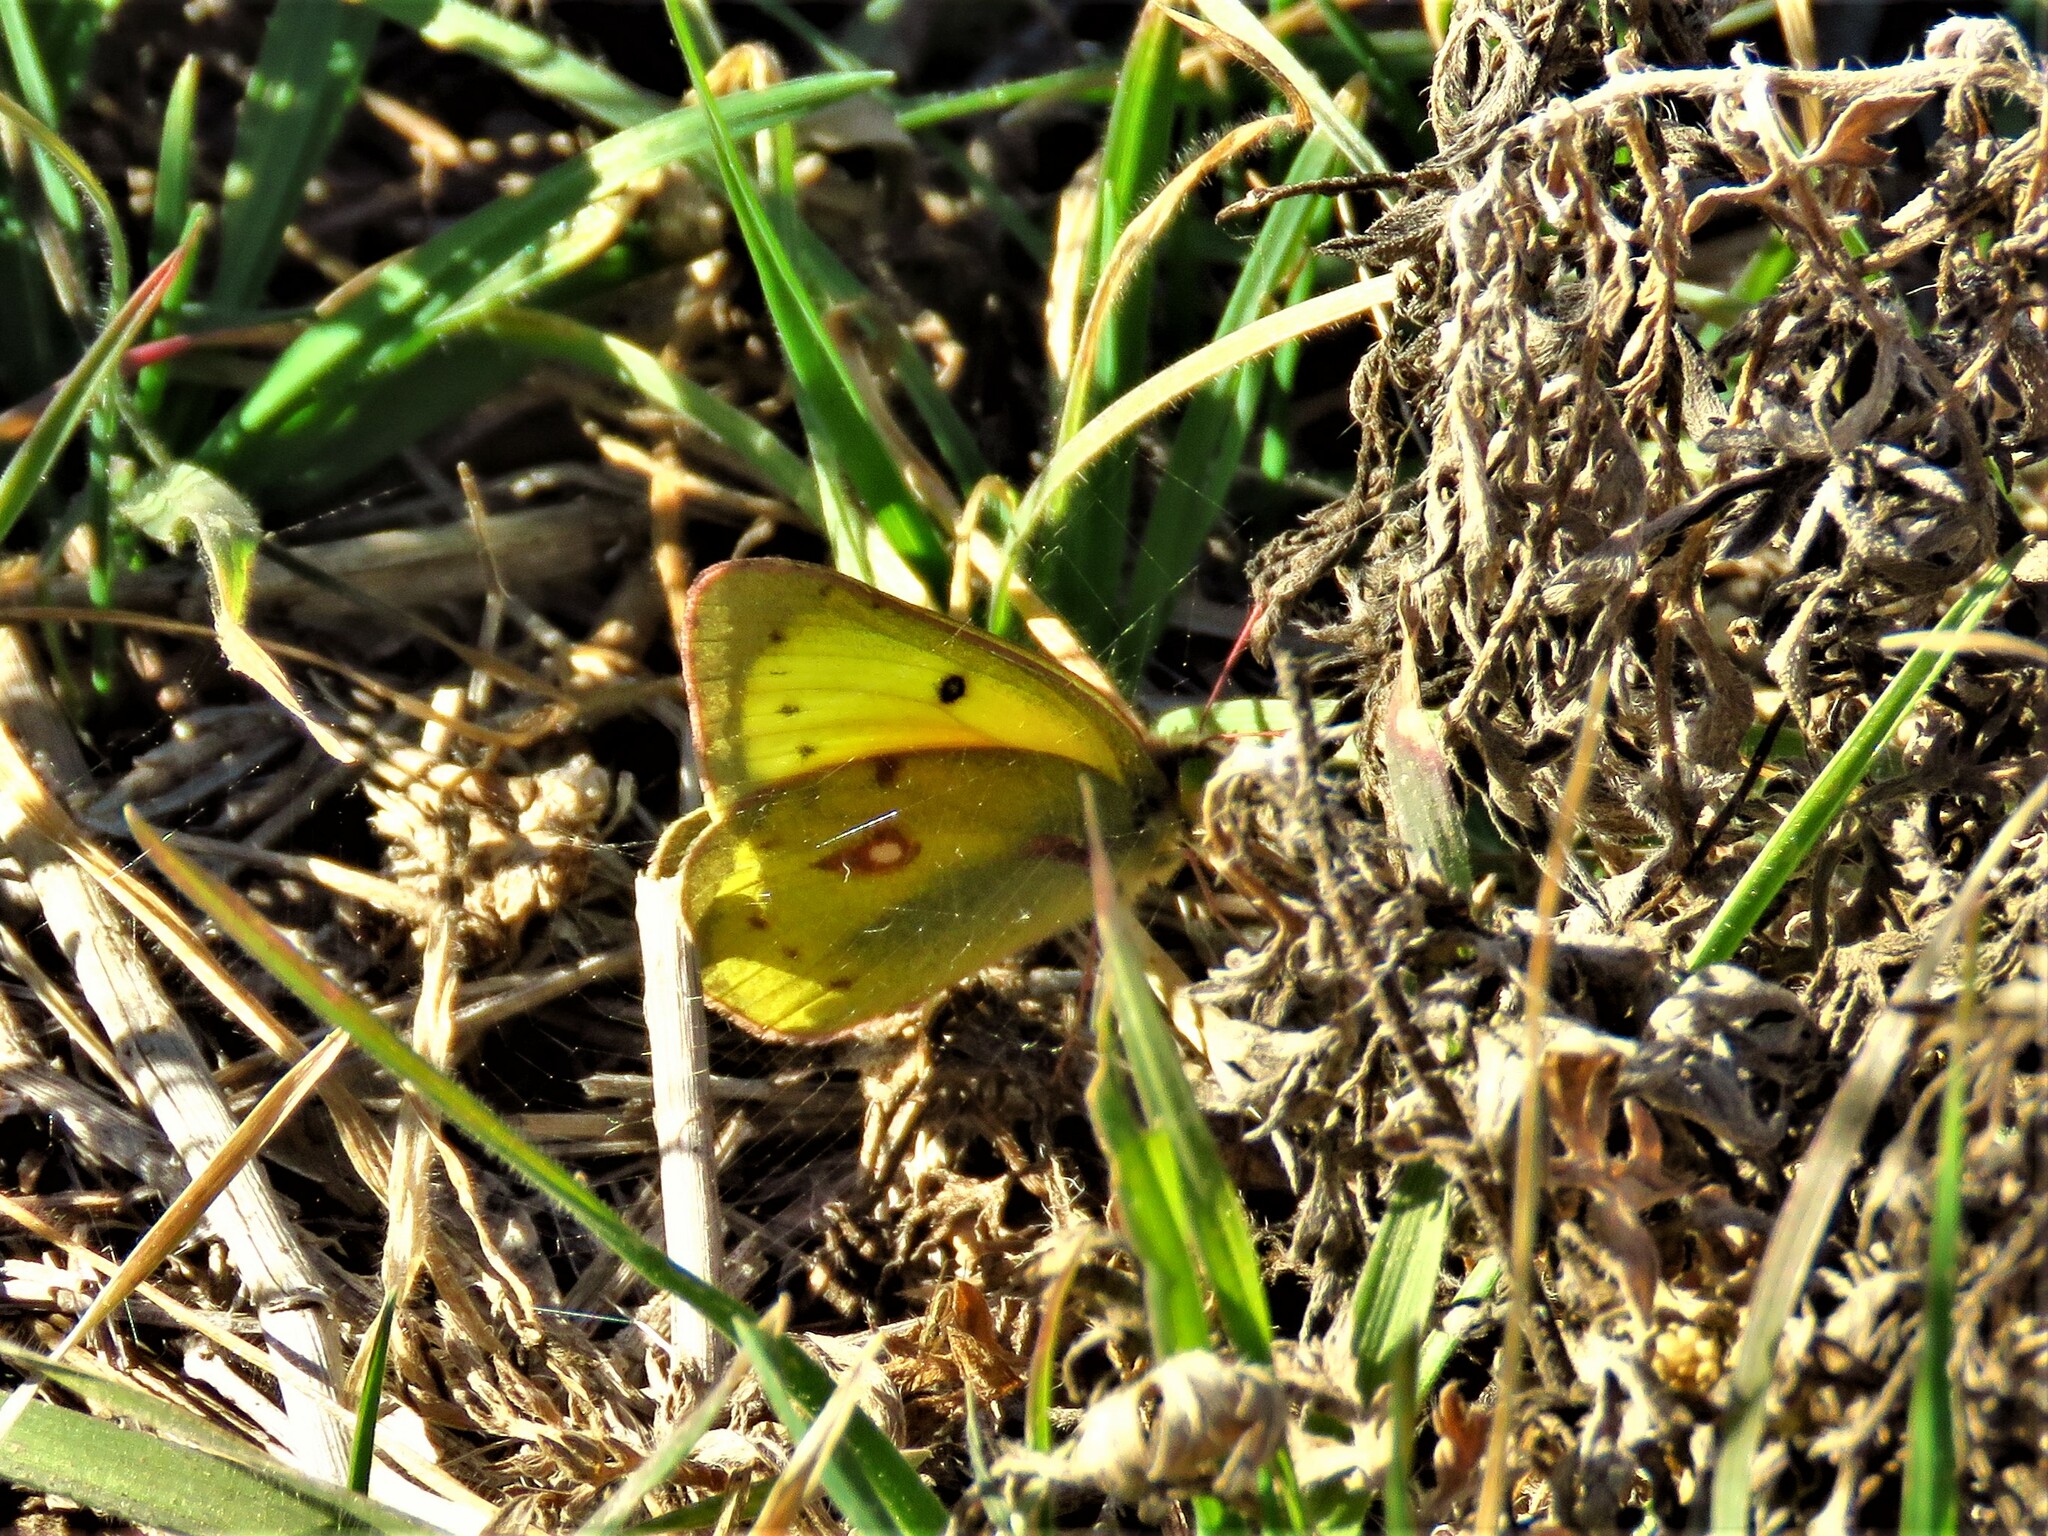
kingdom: Animalia
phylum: Arthropoda
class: Insecta
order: Lepidoptera
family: Pieridae
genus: Colias
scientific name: Colias eurytheme
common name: Alfalfa butterfly
